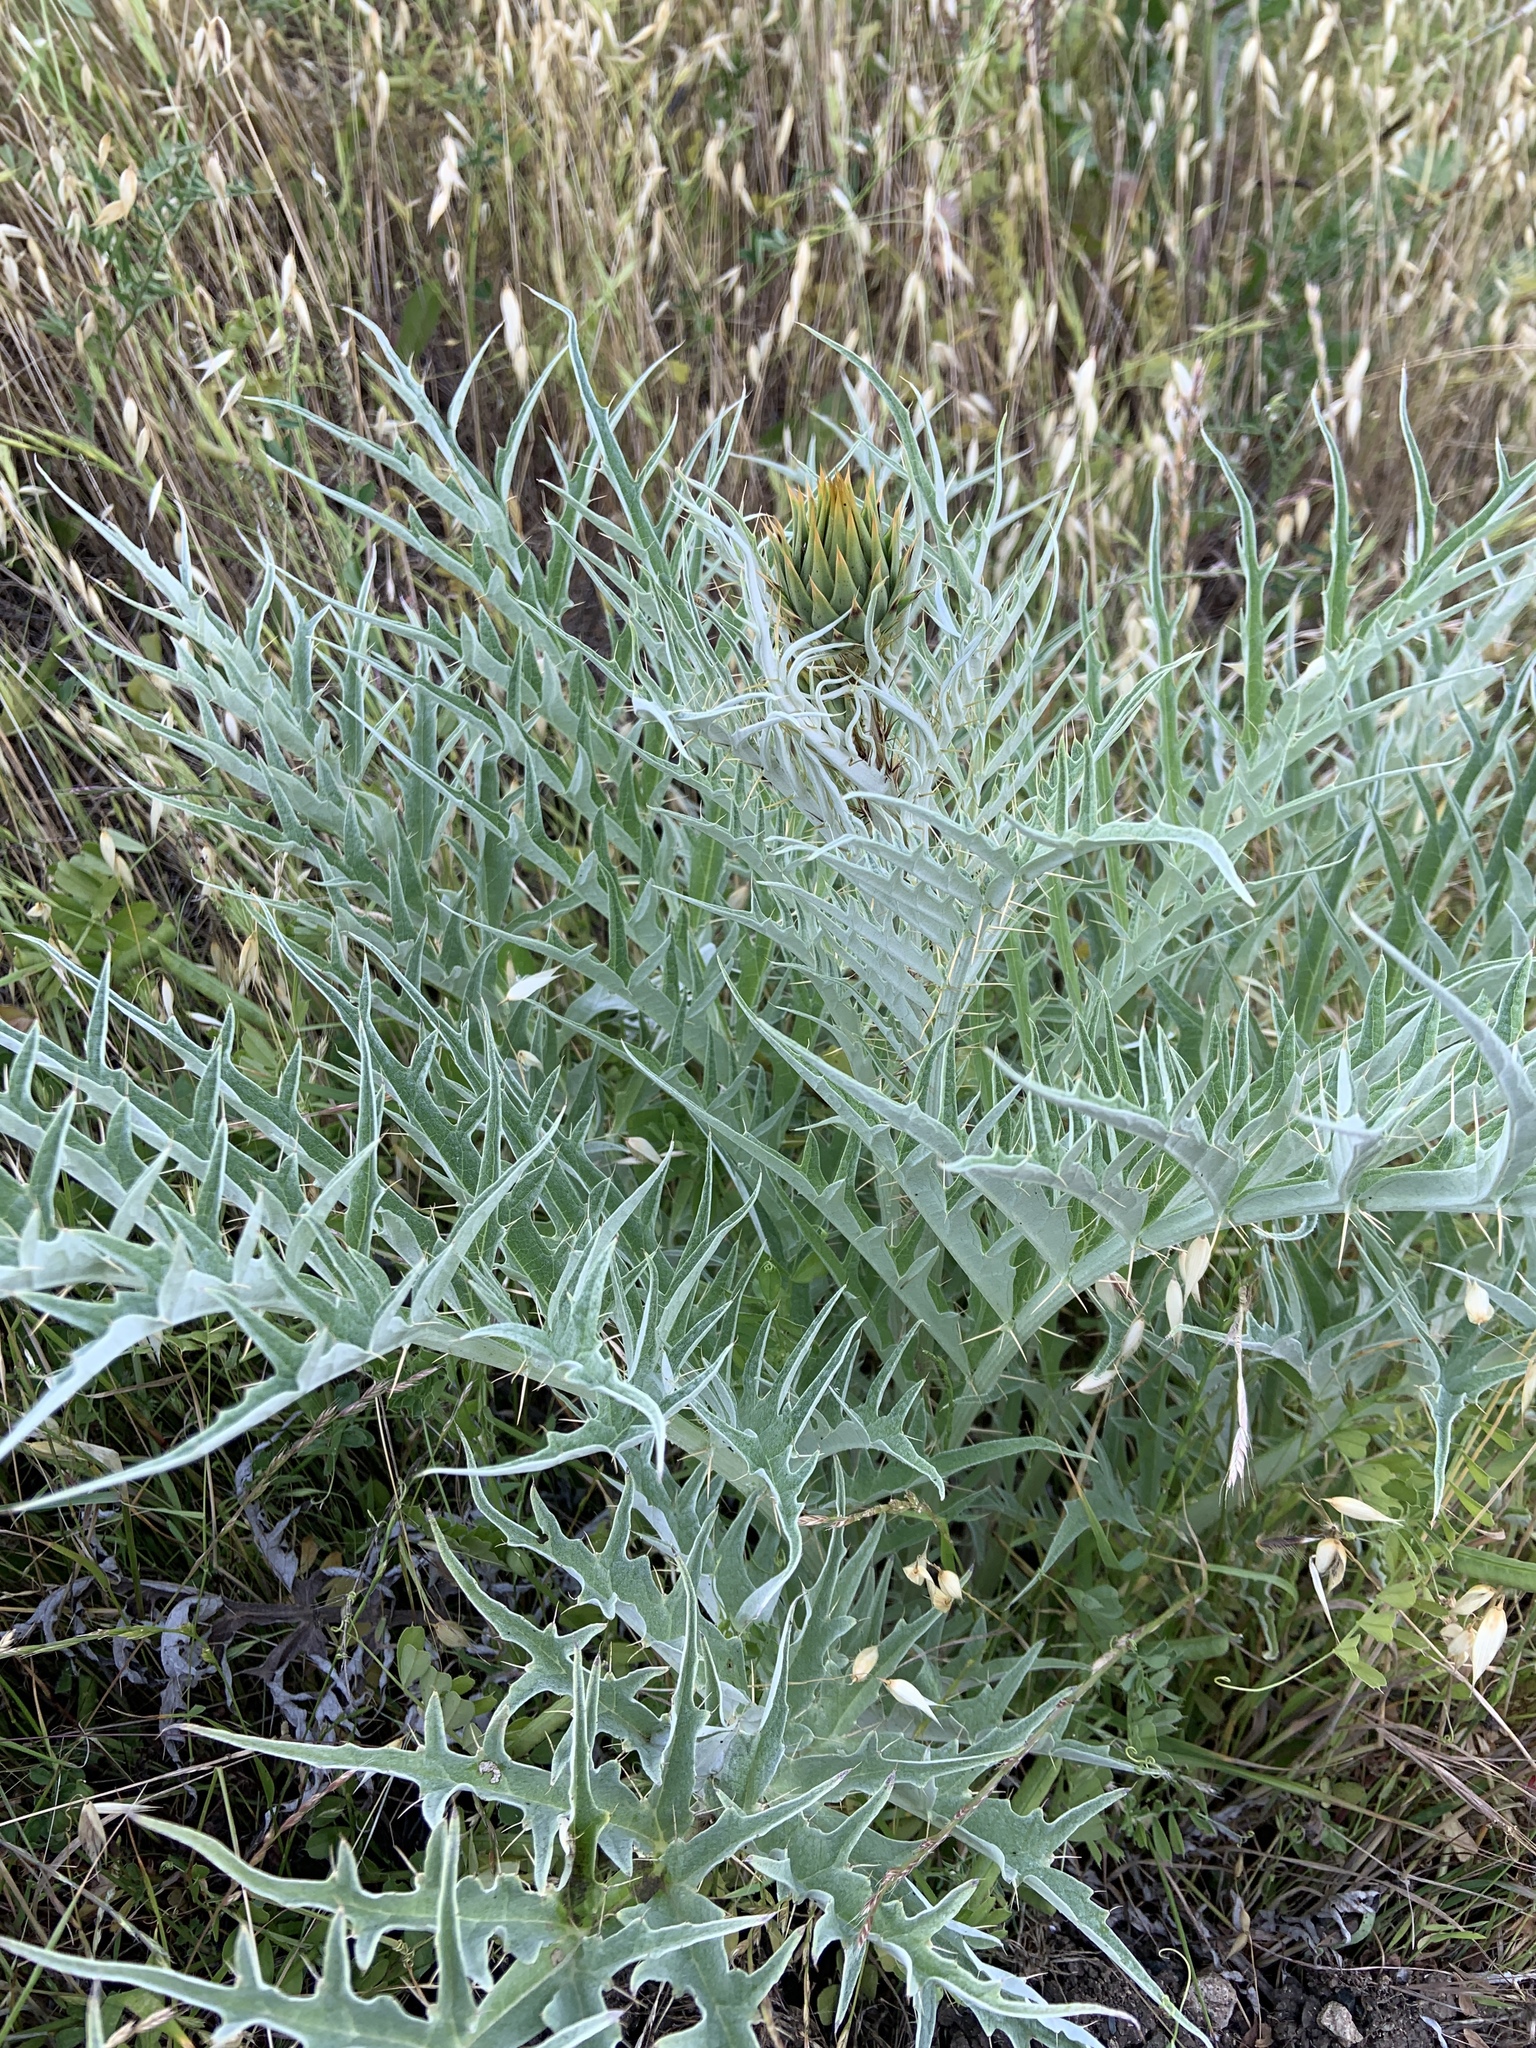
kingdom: Plantae
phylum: Tracheophyta
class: Magnoliopsida
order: Asterales
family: Asteraceae
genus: Cynara
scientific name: Cynara cardunculus
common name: Globe artichoke
